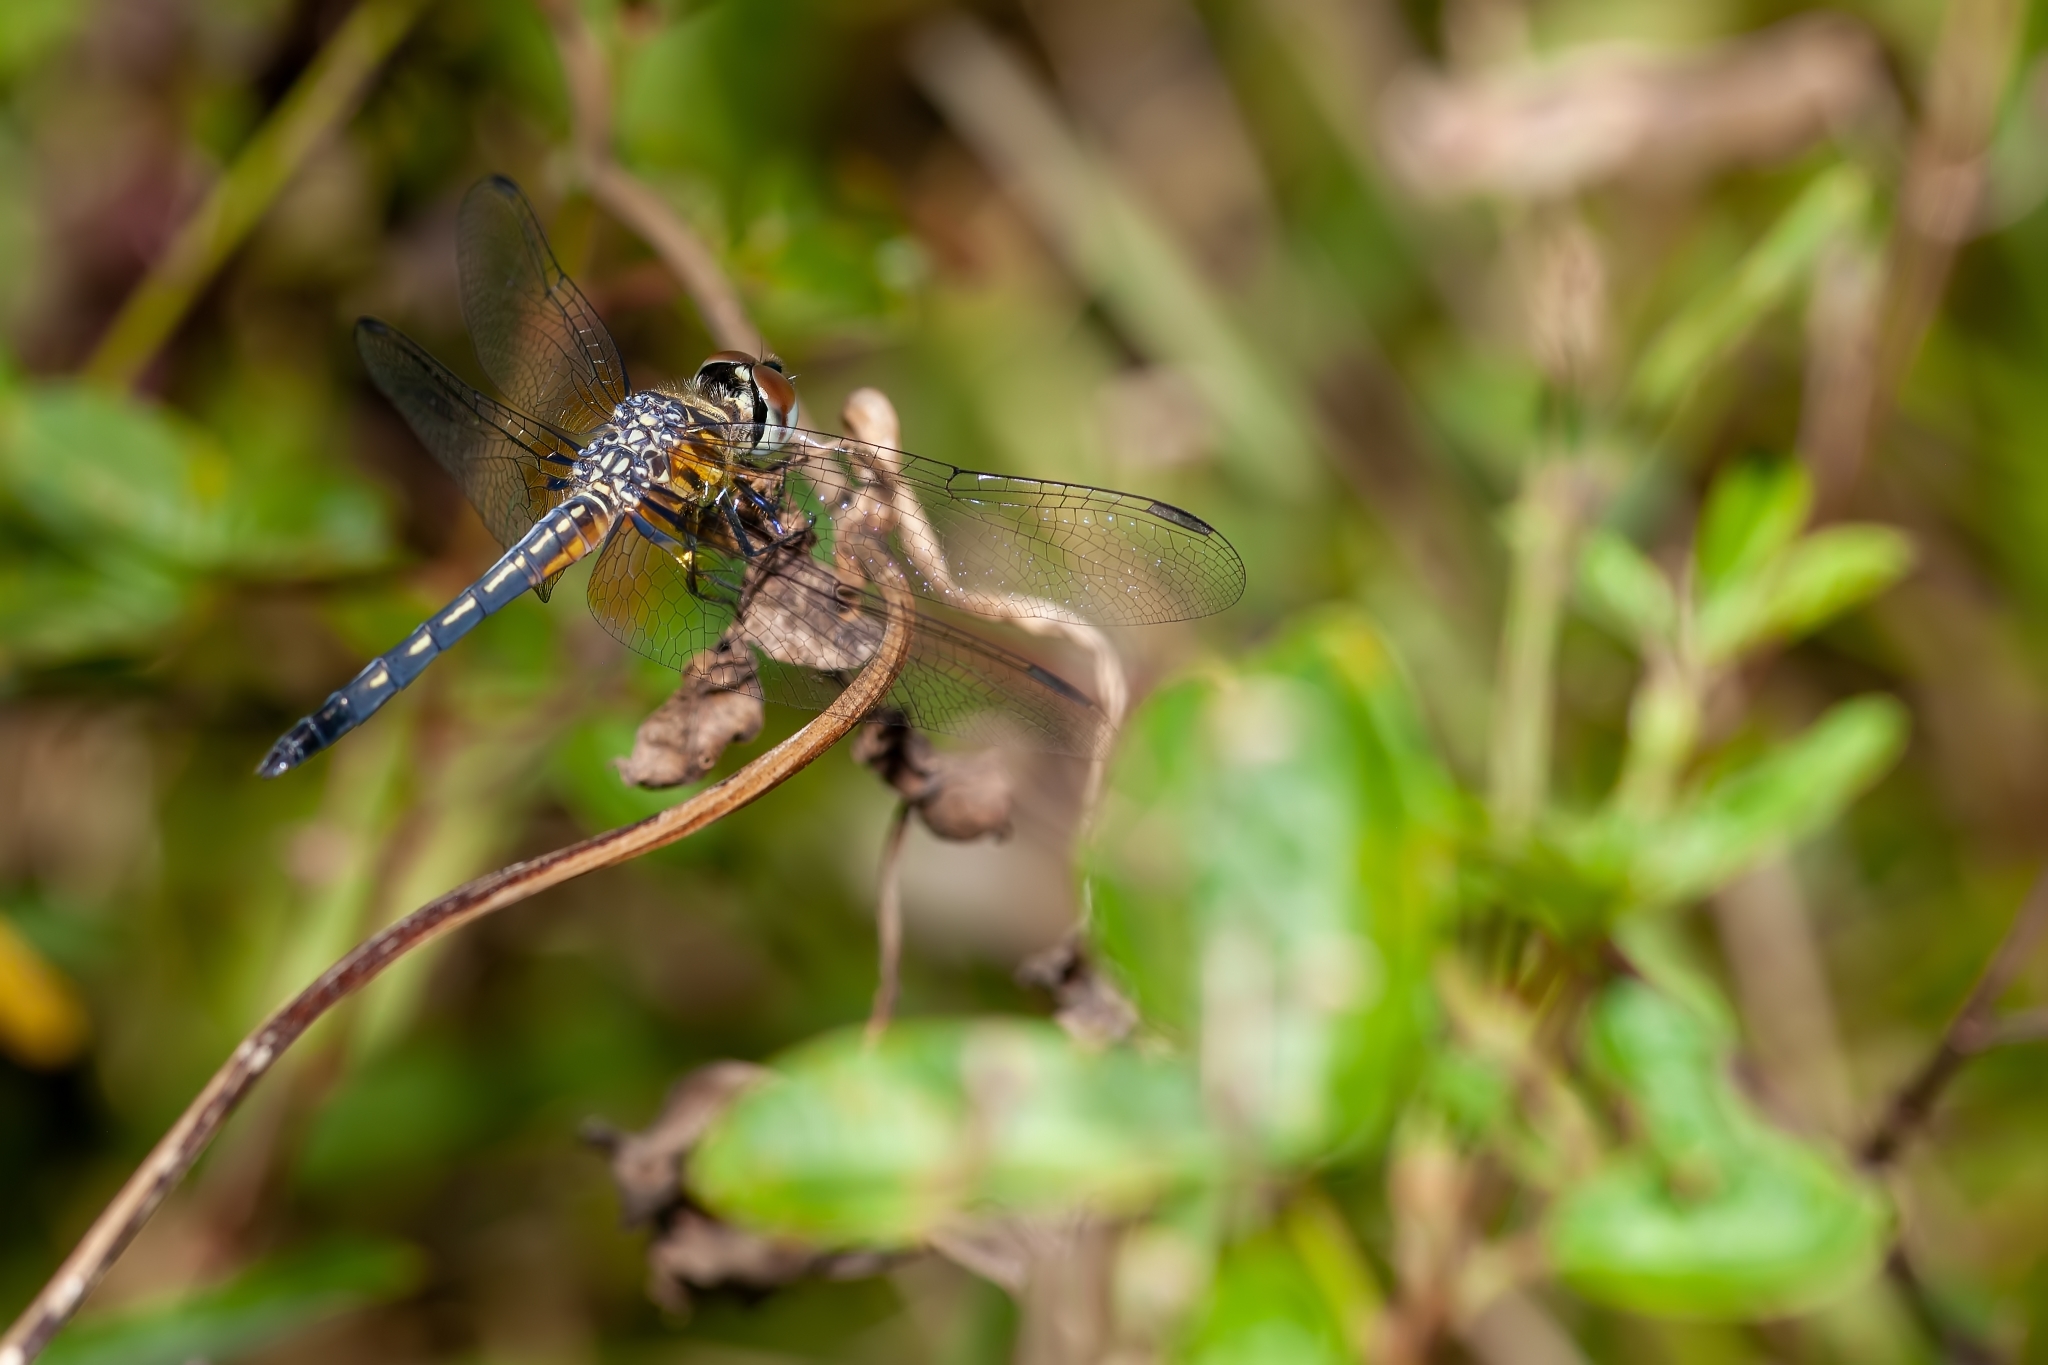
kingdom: Animalia
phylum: Arthropoda
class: Insecta
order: Odonata
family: Libellulidae
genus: Pachydiplax
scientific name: Pachydiplax longipennis
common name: Blue dasher
